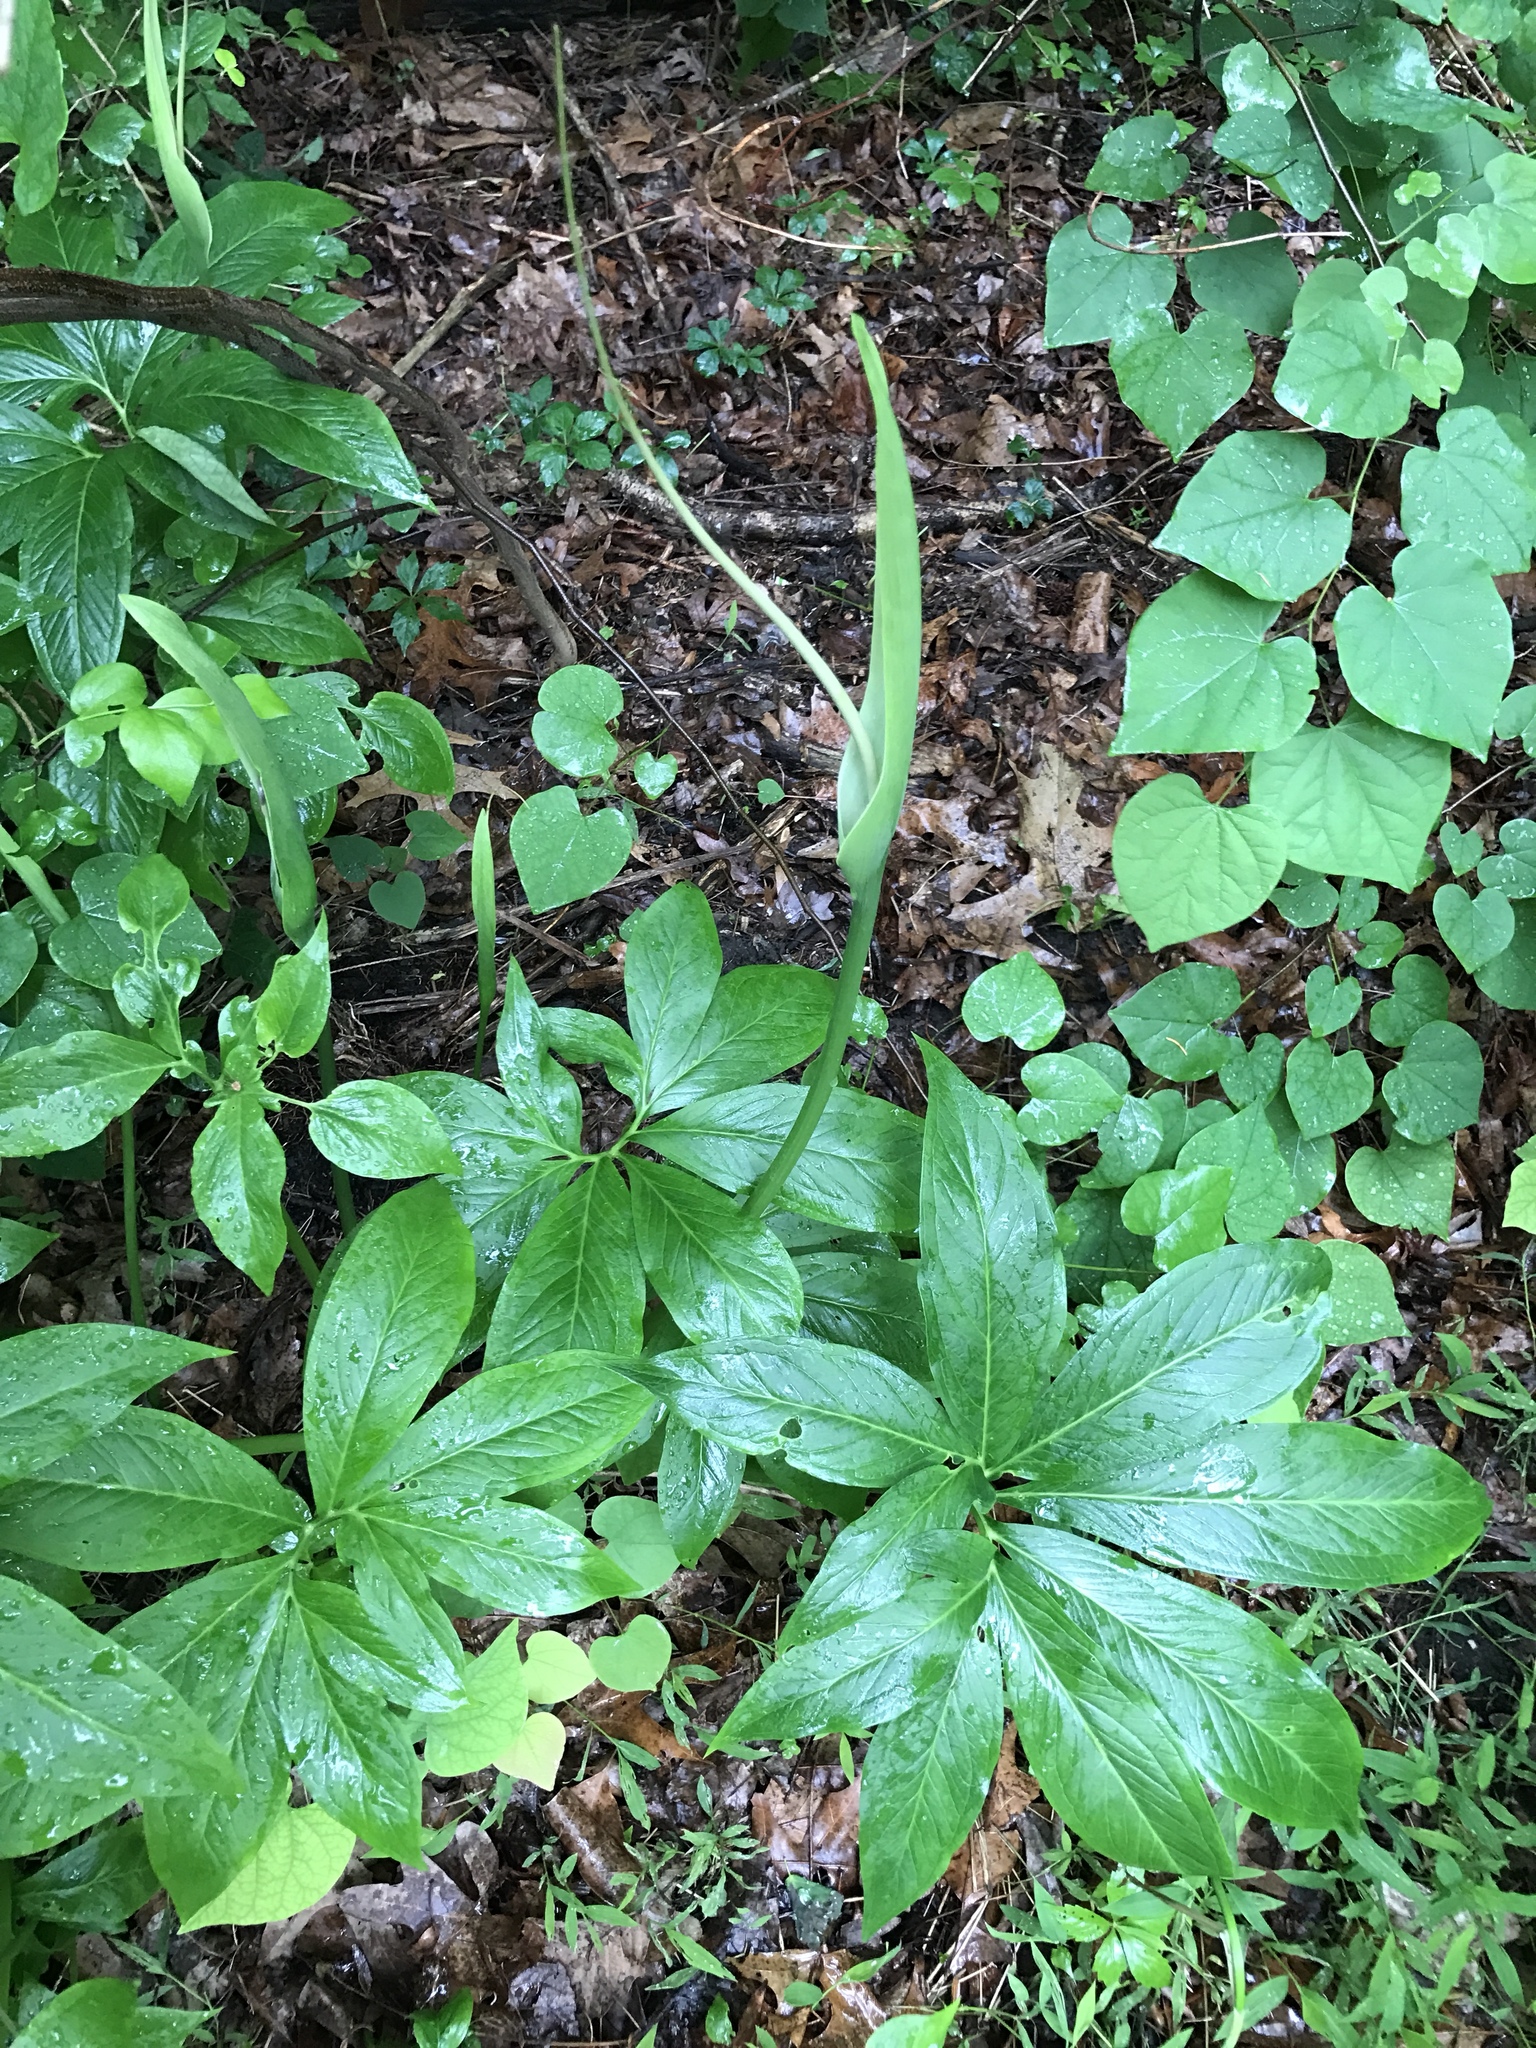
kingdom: Plantae
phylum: Tracheophyta
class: Liliopsida
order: Alismatales
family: Araceae
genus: Pinellia
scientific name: Pinellia pedatisecta
